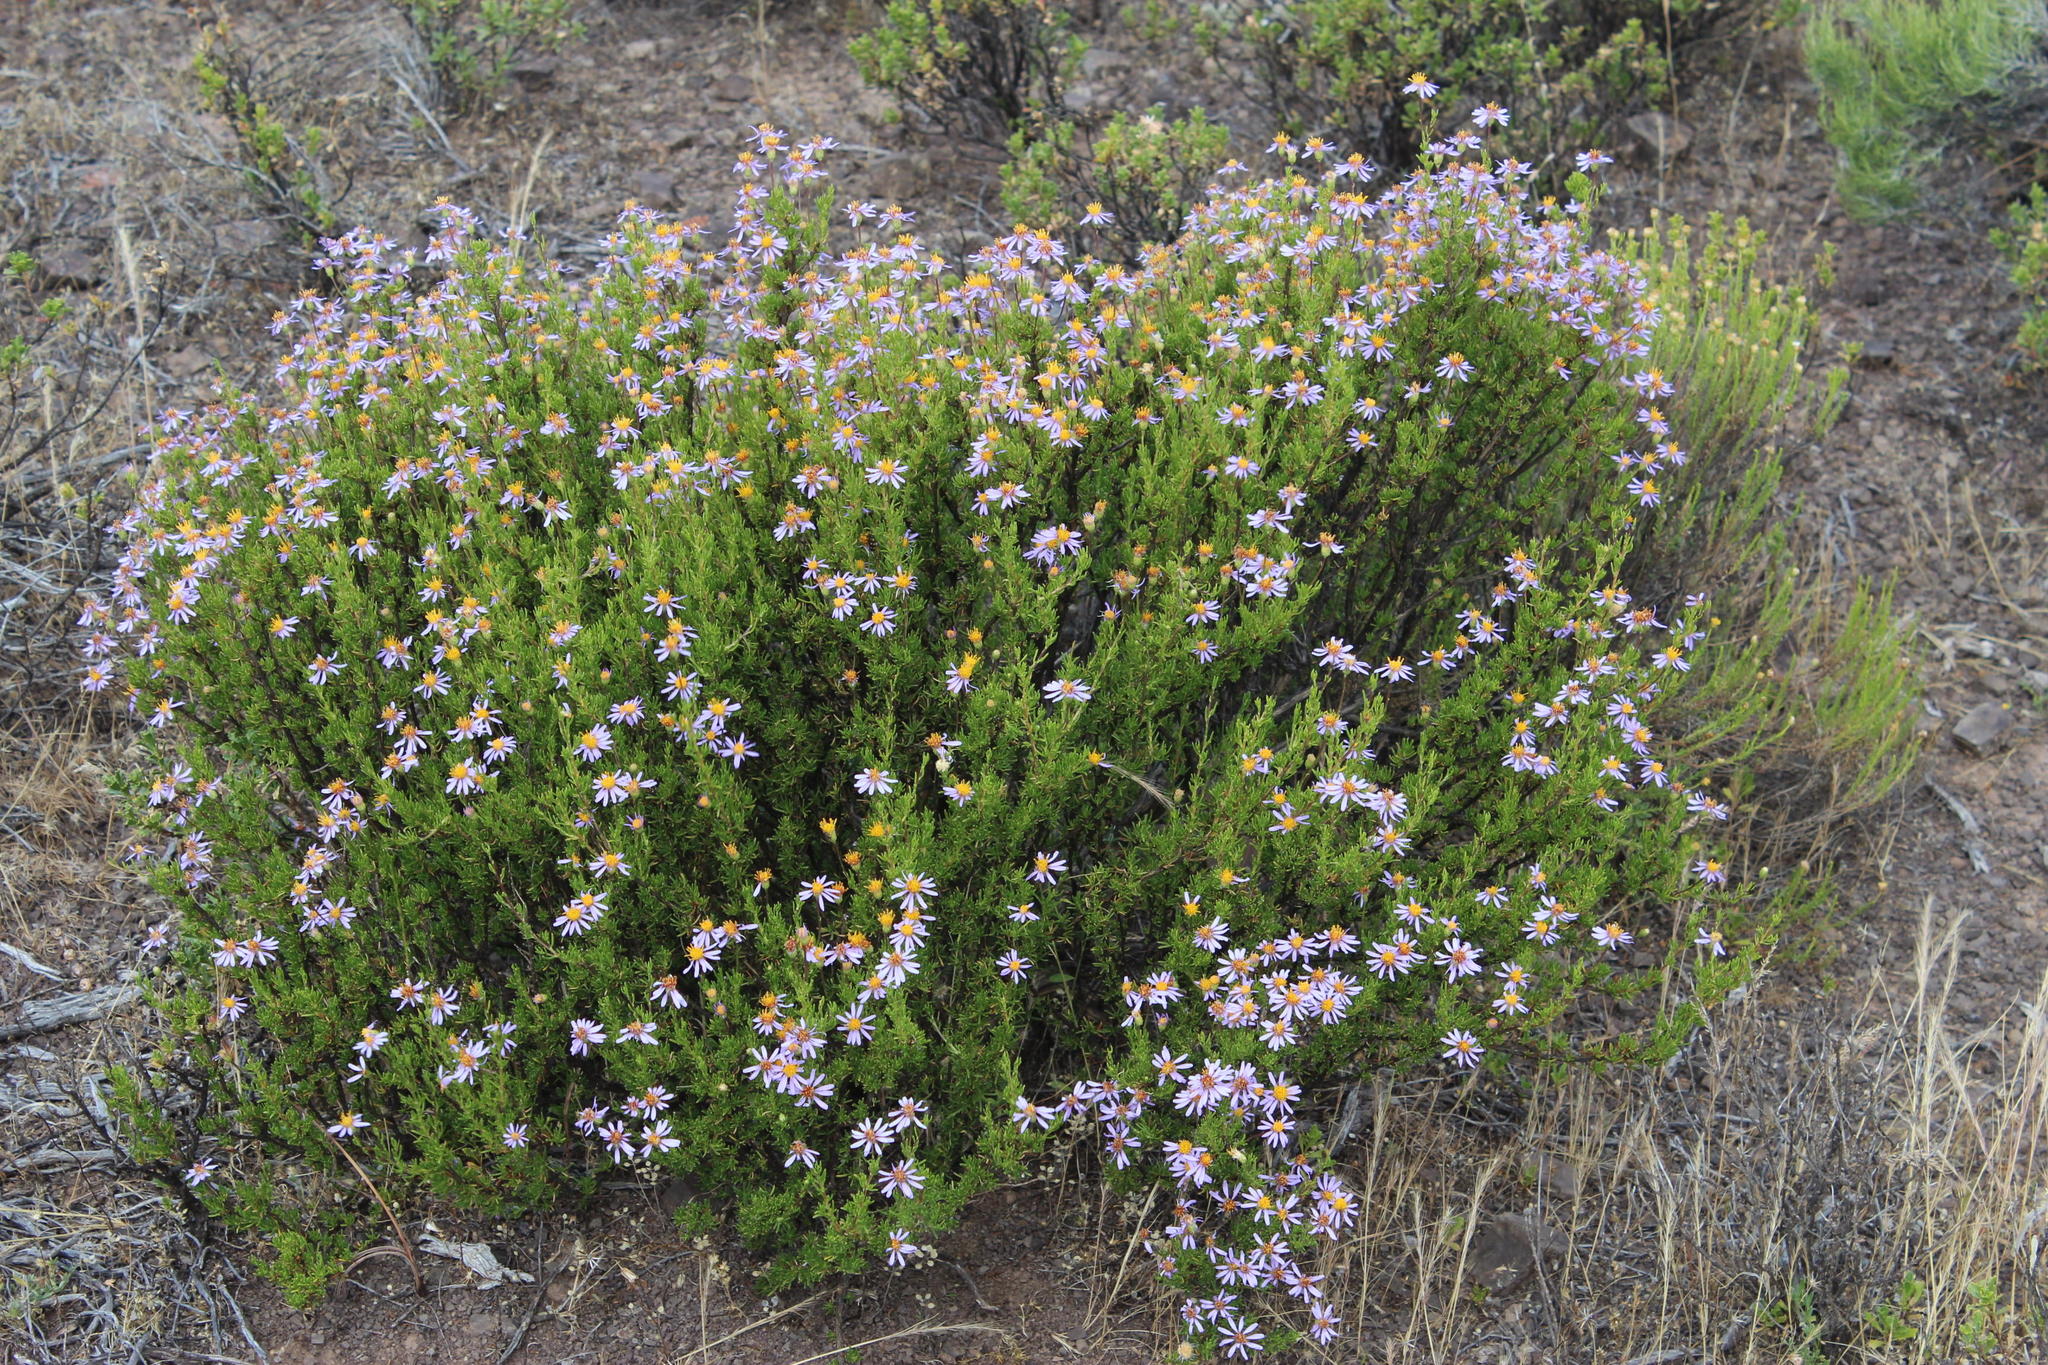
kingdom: Plantae
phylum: Tracheophyta
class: Magnoliopsida
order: Asterales
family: Asteraceae
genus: Felicia
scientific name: Felicia filifolia
